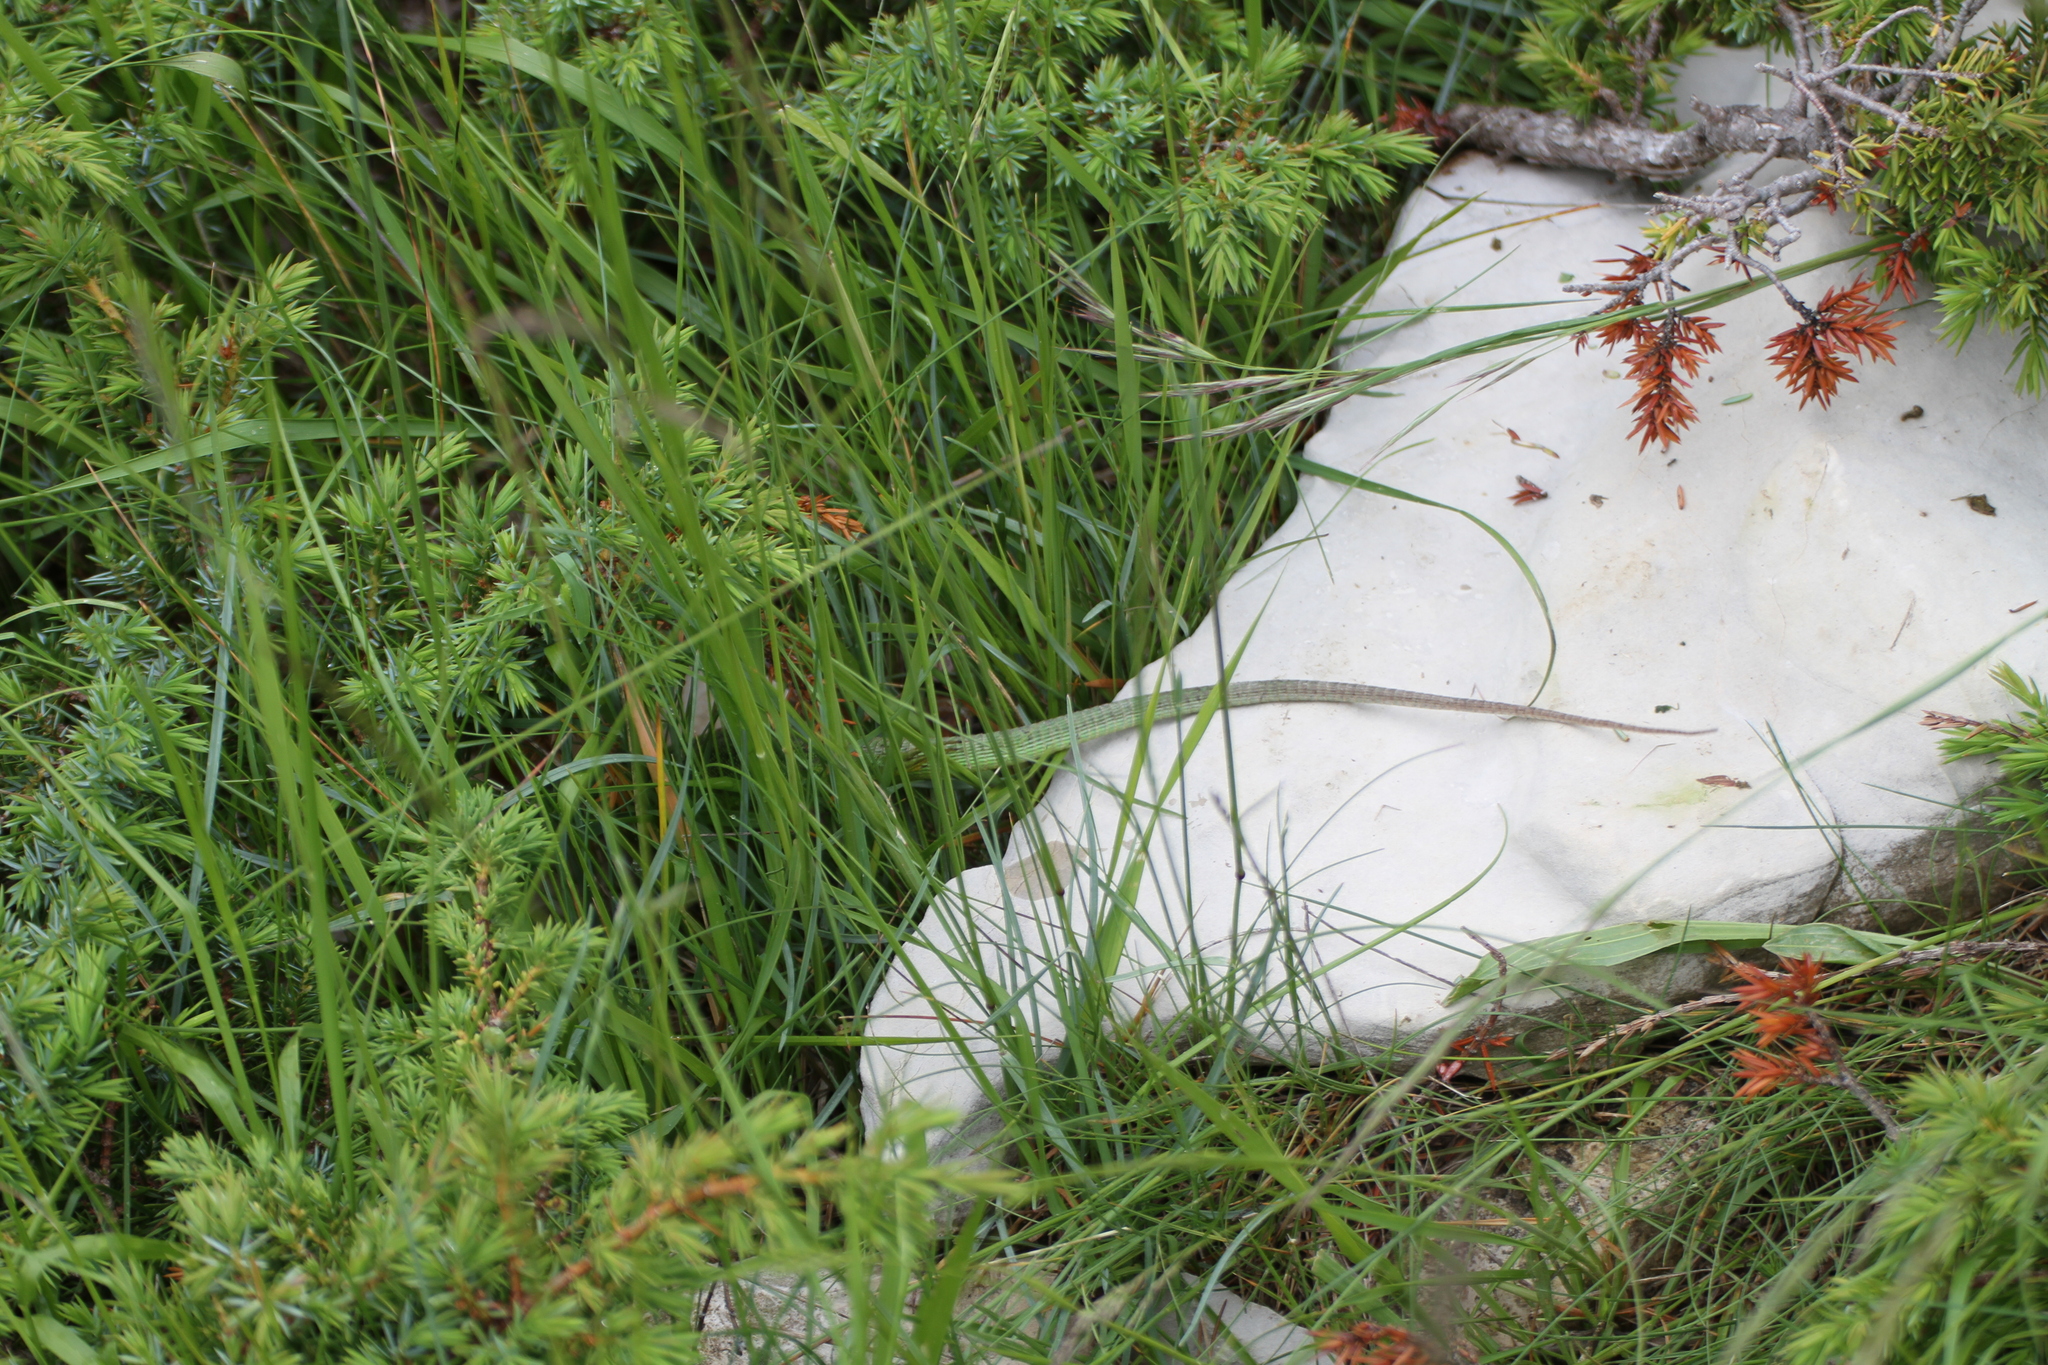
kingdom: Animalia
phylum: Chordata
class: Squamata
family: Lacertidae
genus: Lacerta
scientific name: Lacerta bilineata
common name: Western green lizard
